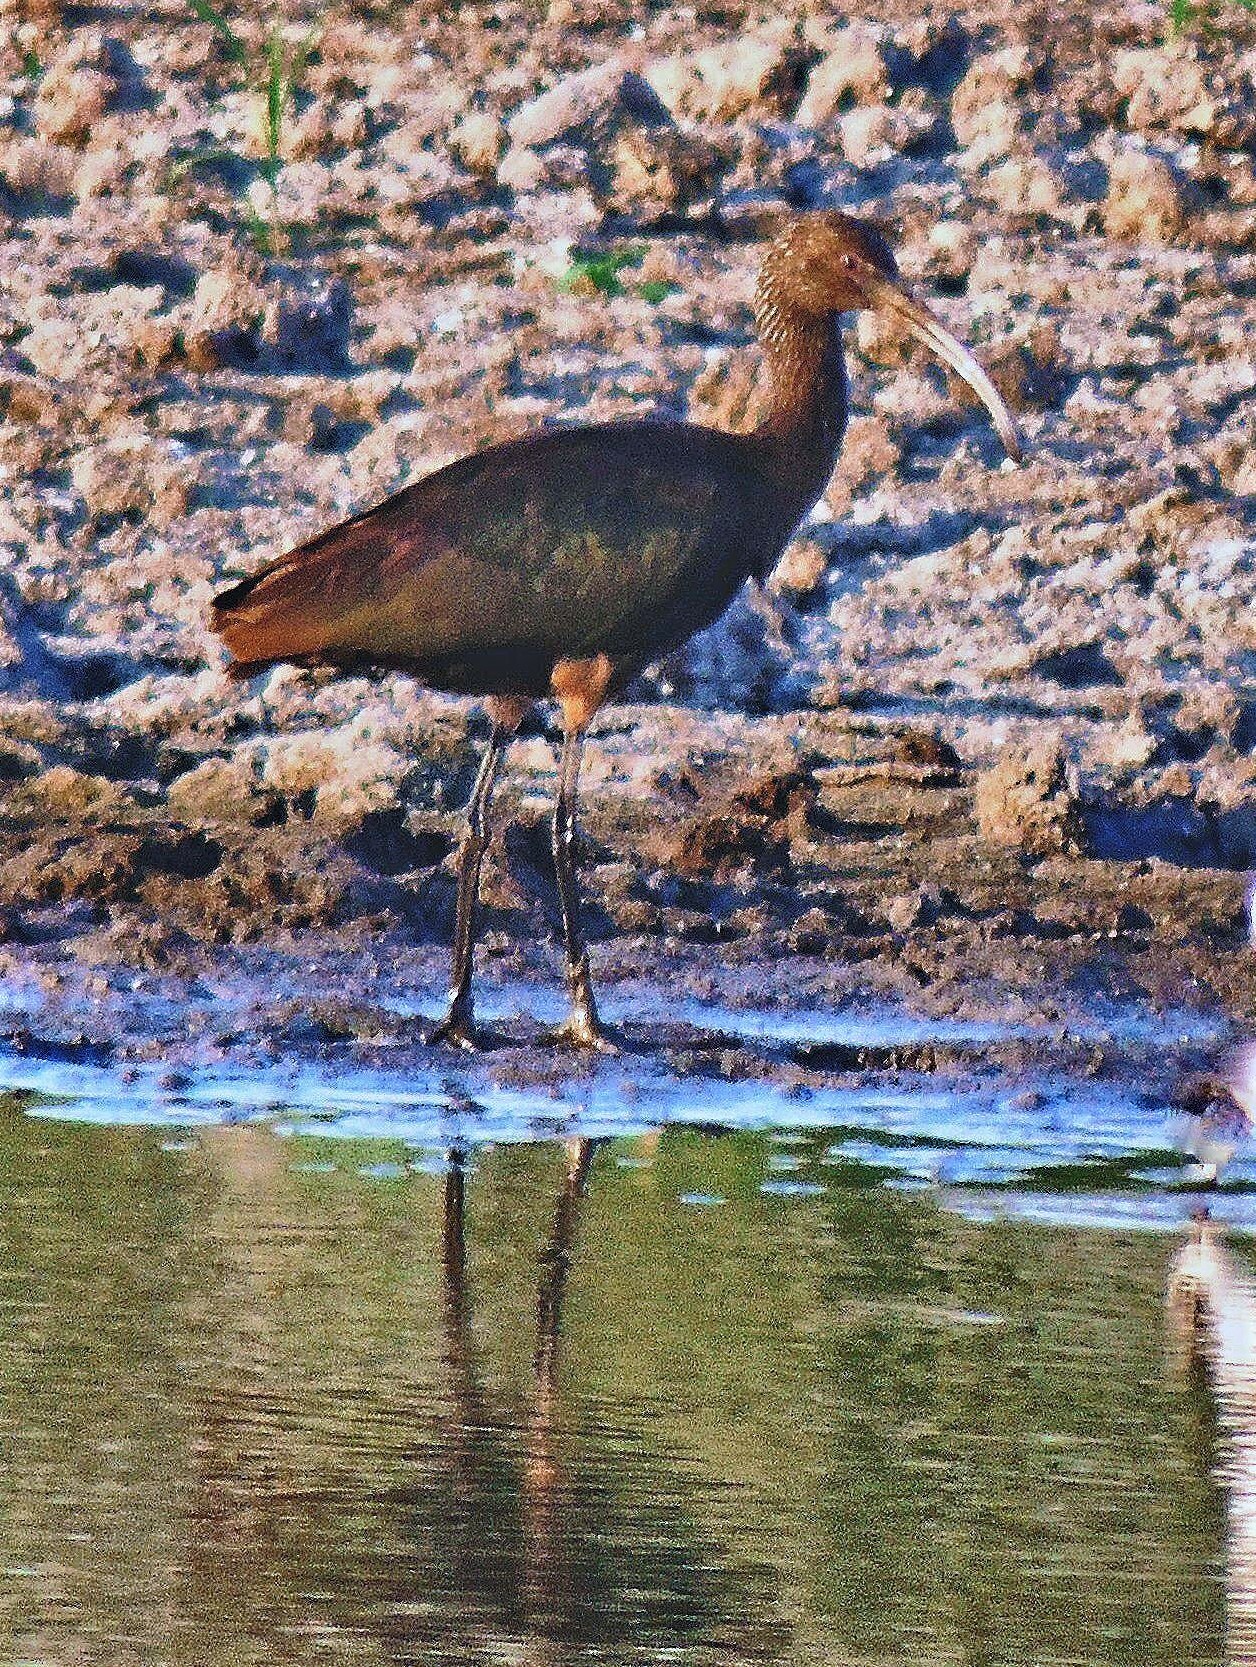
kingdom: Animalia
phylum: Chordata
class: Aves
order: Pelecaniformes
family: Threskiornithidae
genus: Plegadis
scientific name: Plegadis chihi
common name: White-faced ibis
